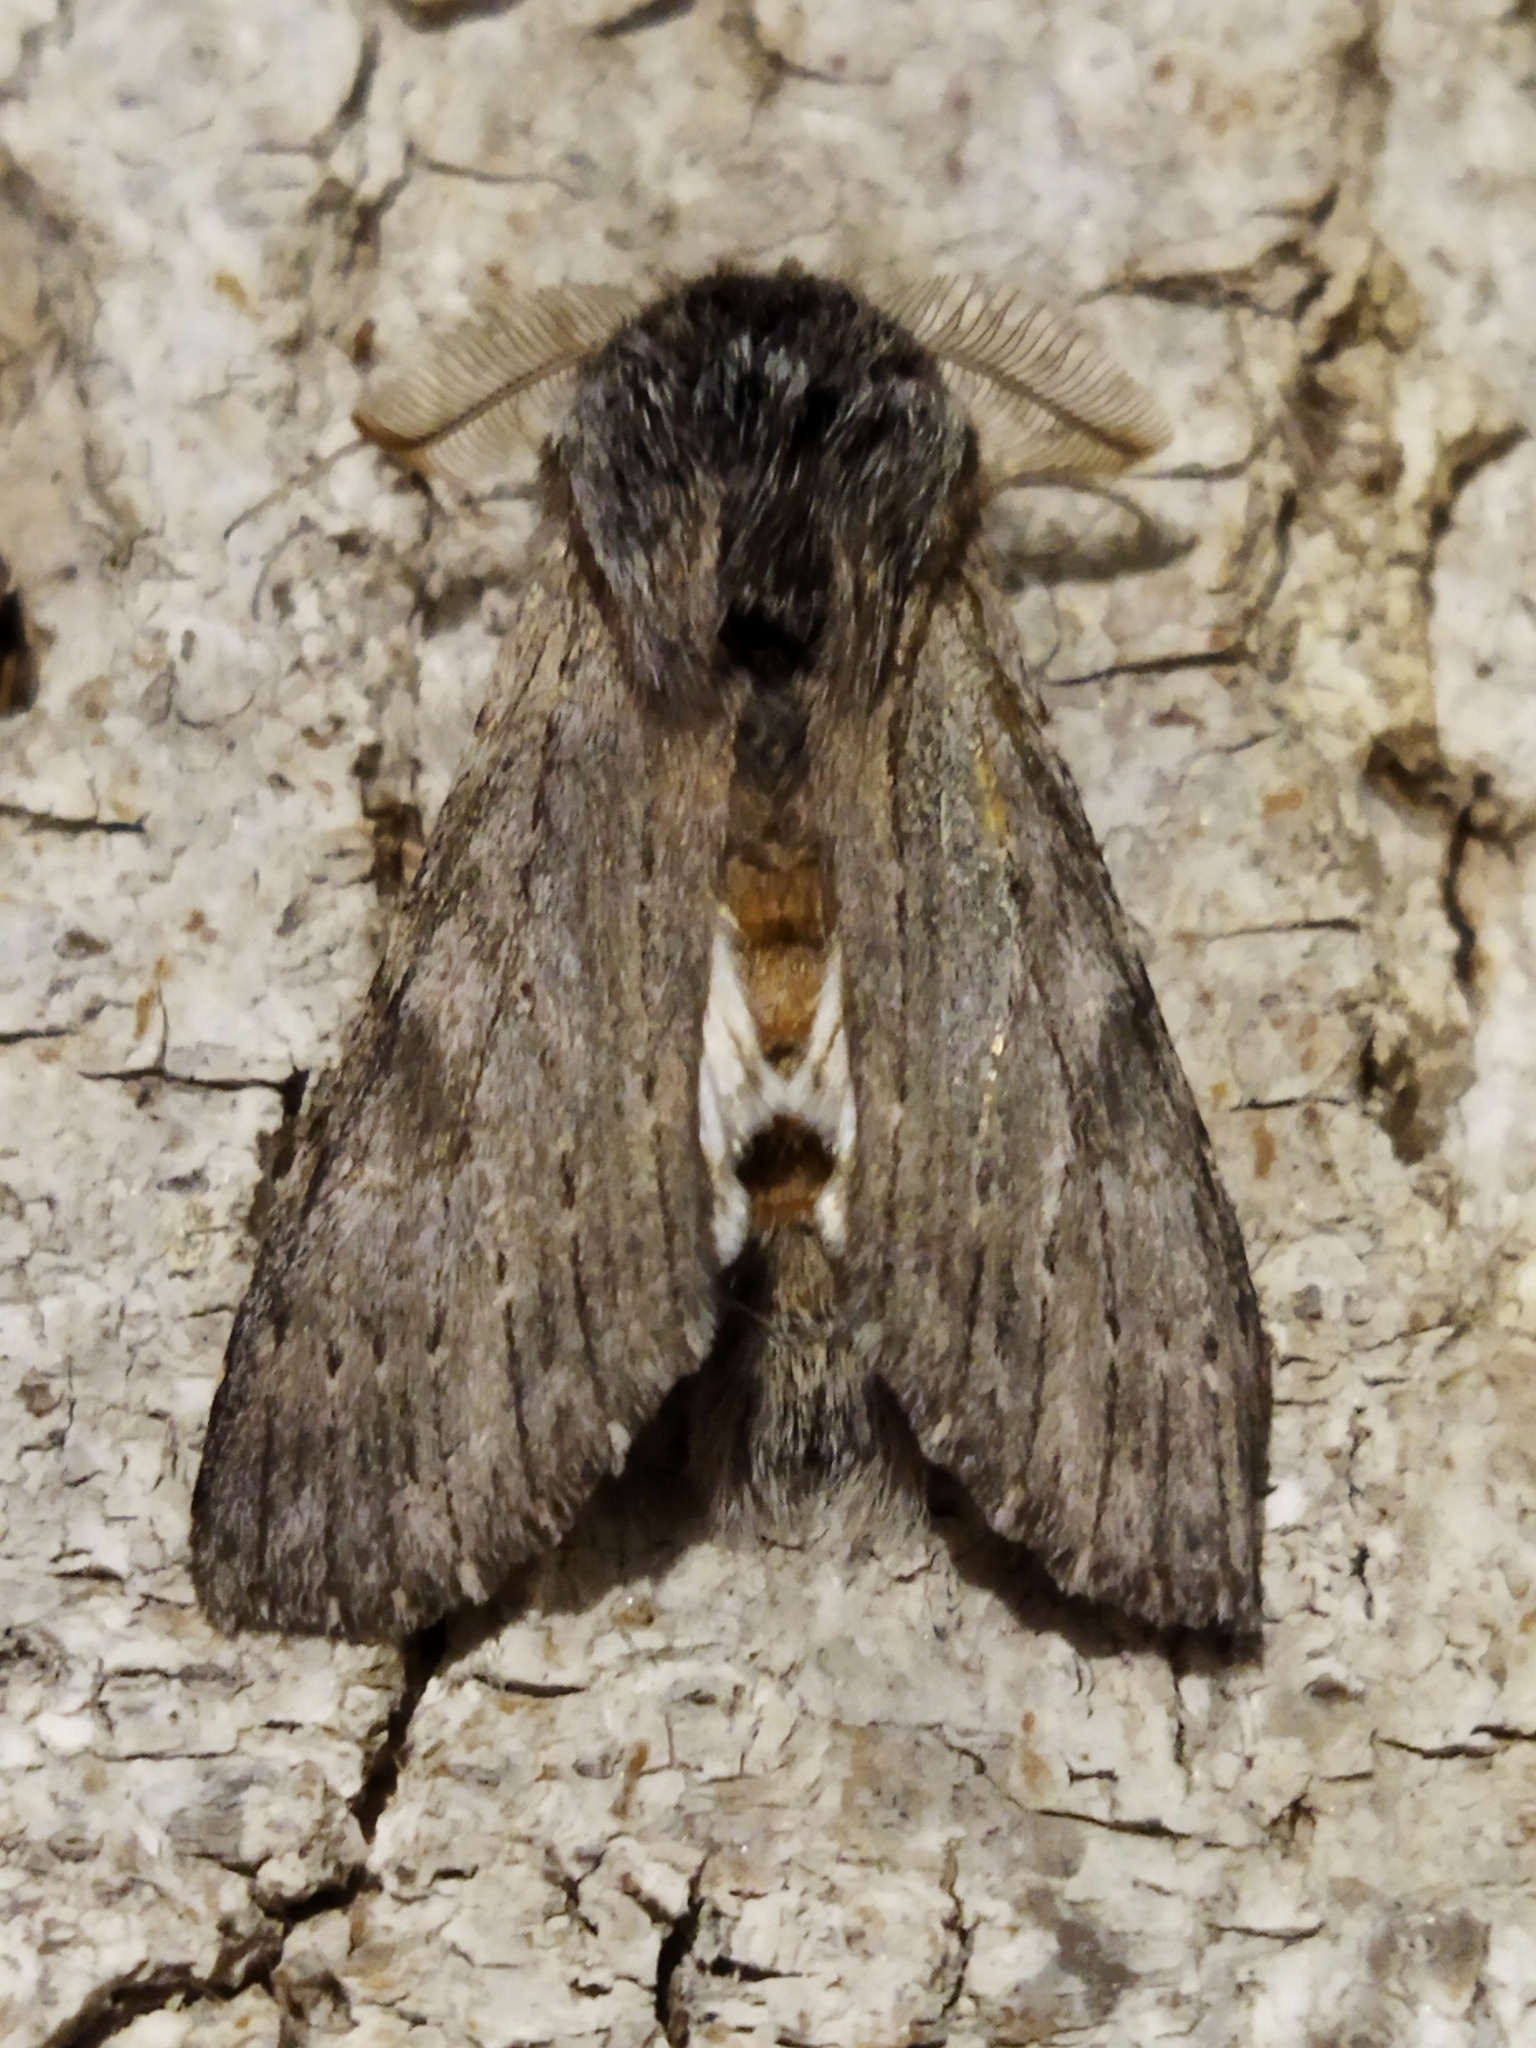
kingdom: Animalia
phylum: Arthropoda
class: Insecta
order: Lepidoptera
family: Notodontidae
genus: Dicranura
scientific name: Dicranura ulmi
